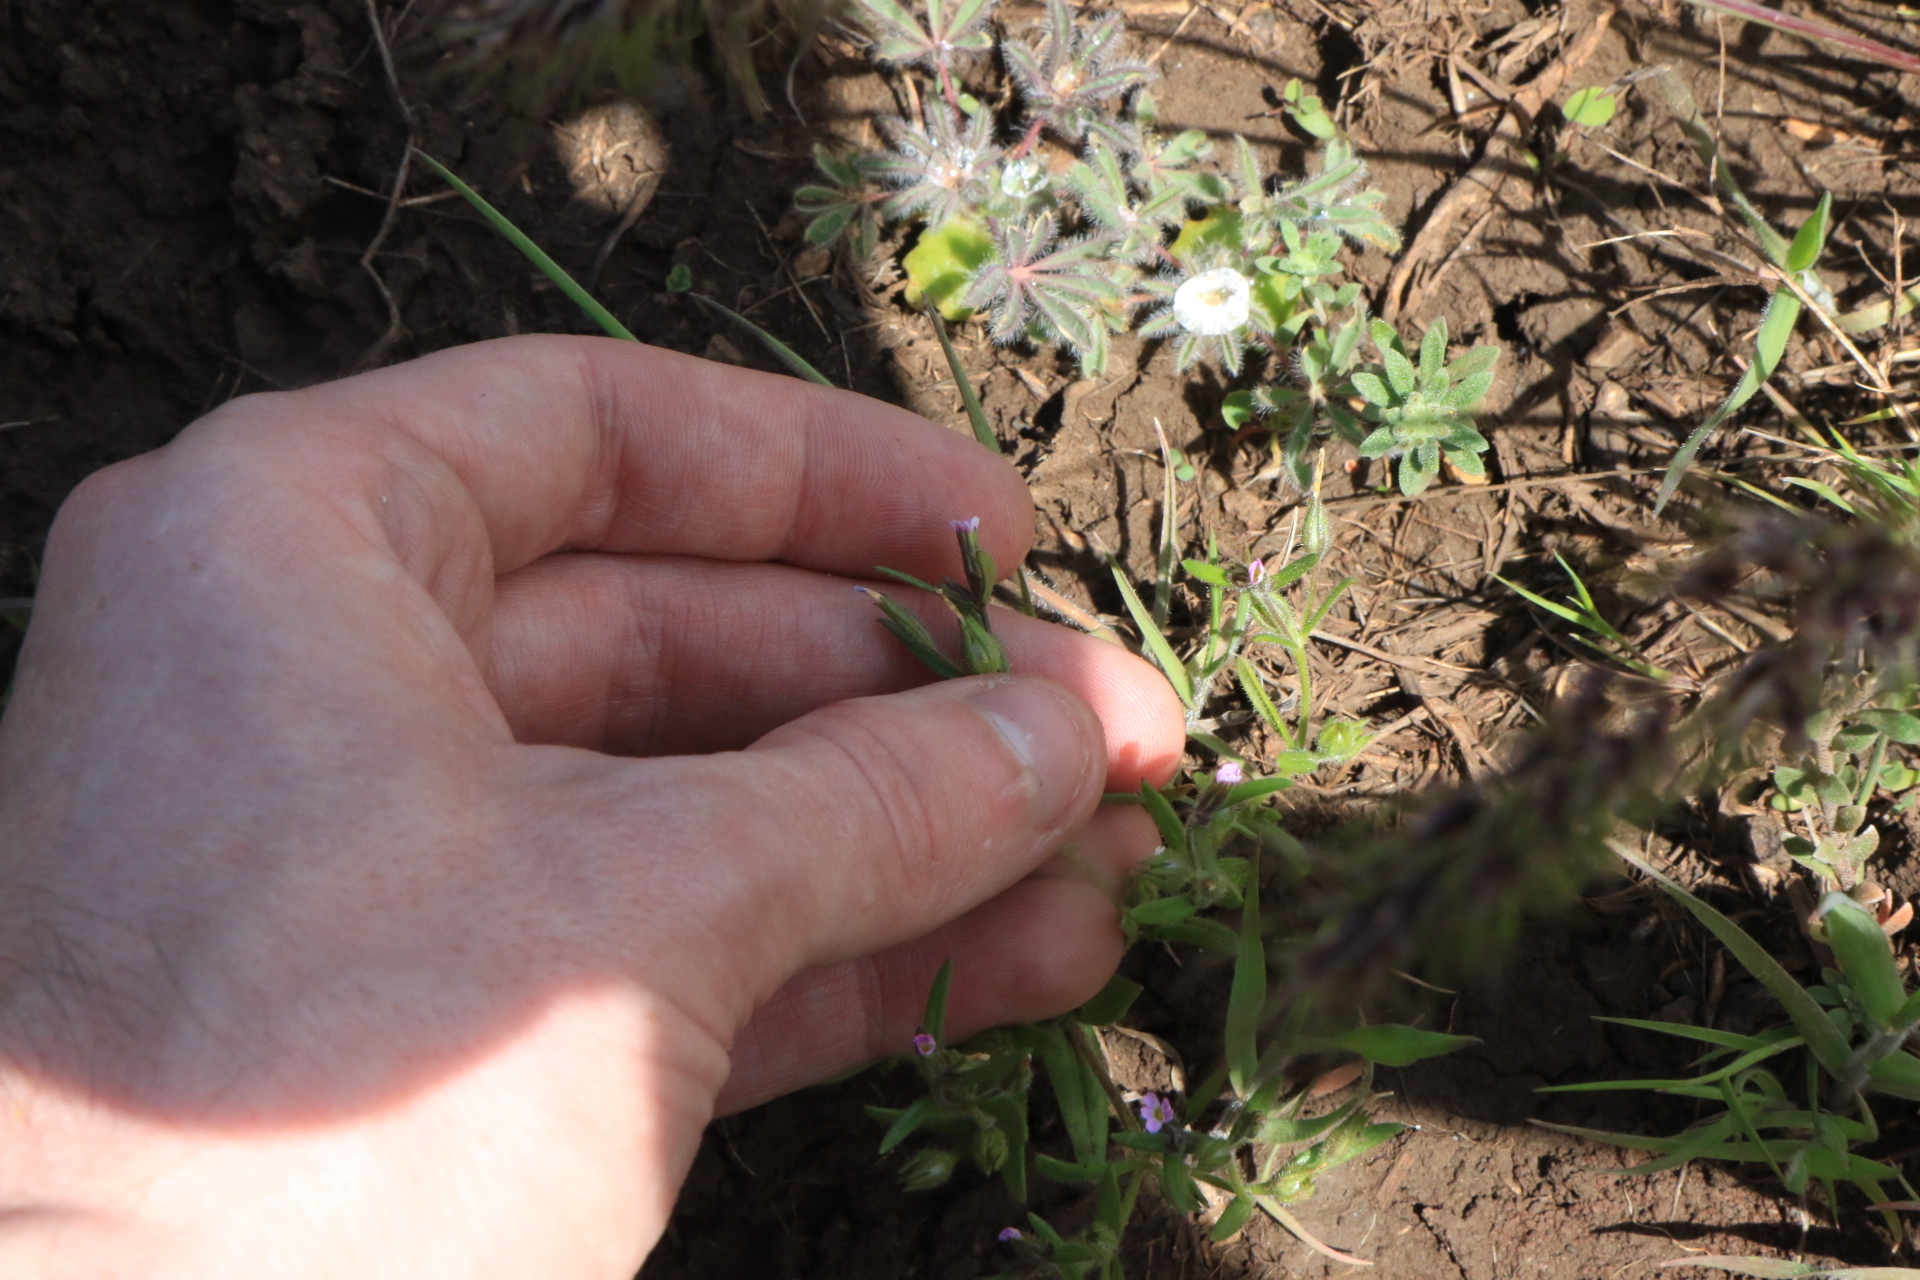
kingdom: Plantae
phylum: Tracheophyta
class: Magnoliopsida
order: Ericales
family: Polemoniaceae
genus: Phlox
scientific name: Phlox gracilis
